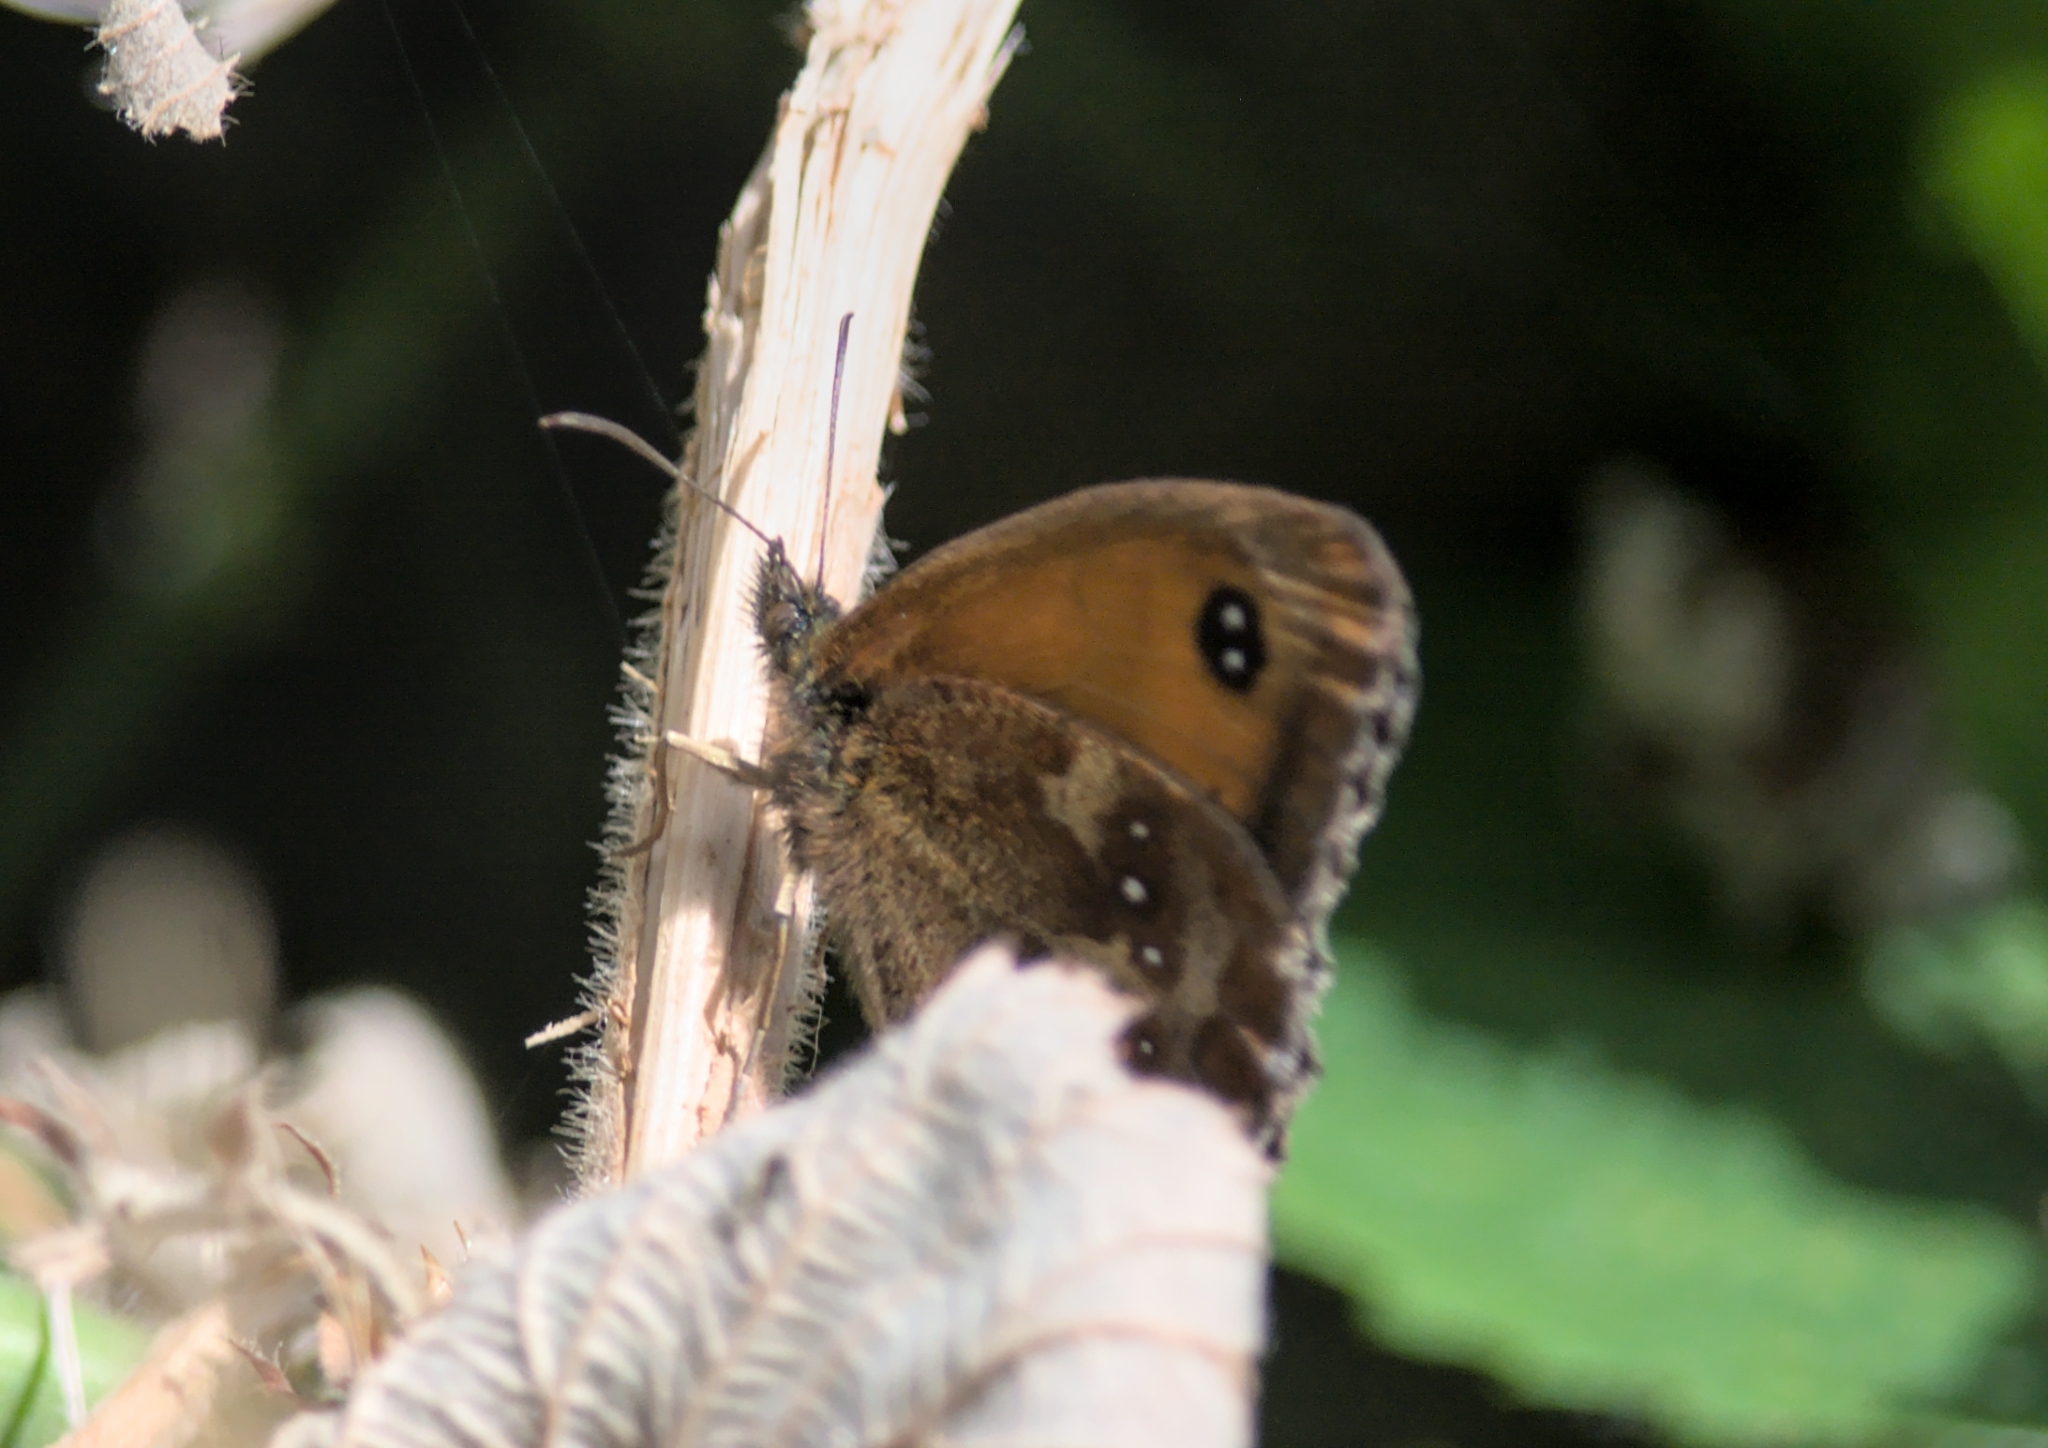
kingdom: Animalia
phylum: Arthropoda
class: Insecta
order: Lepidoptera
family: Nymphalidae
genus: Pyronia
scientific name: Pyronia tithonus
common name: Gatekeeper
